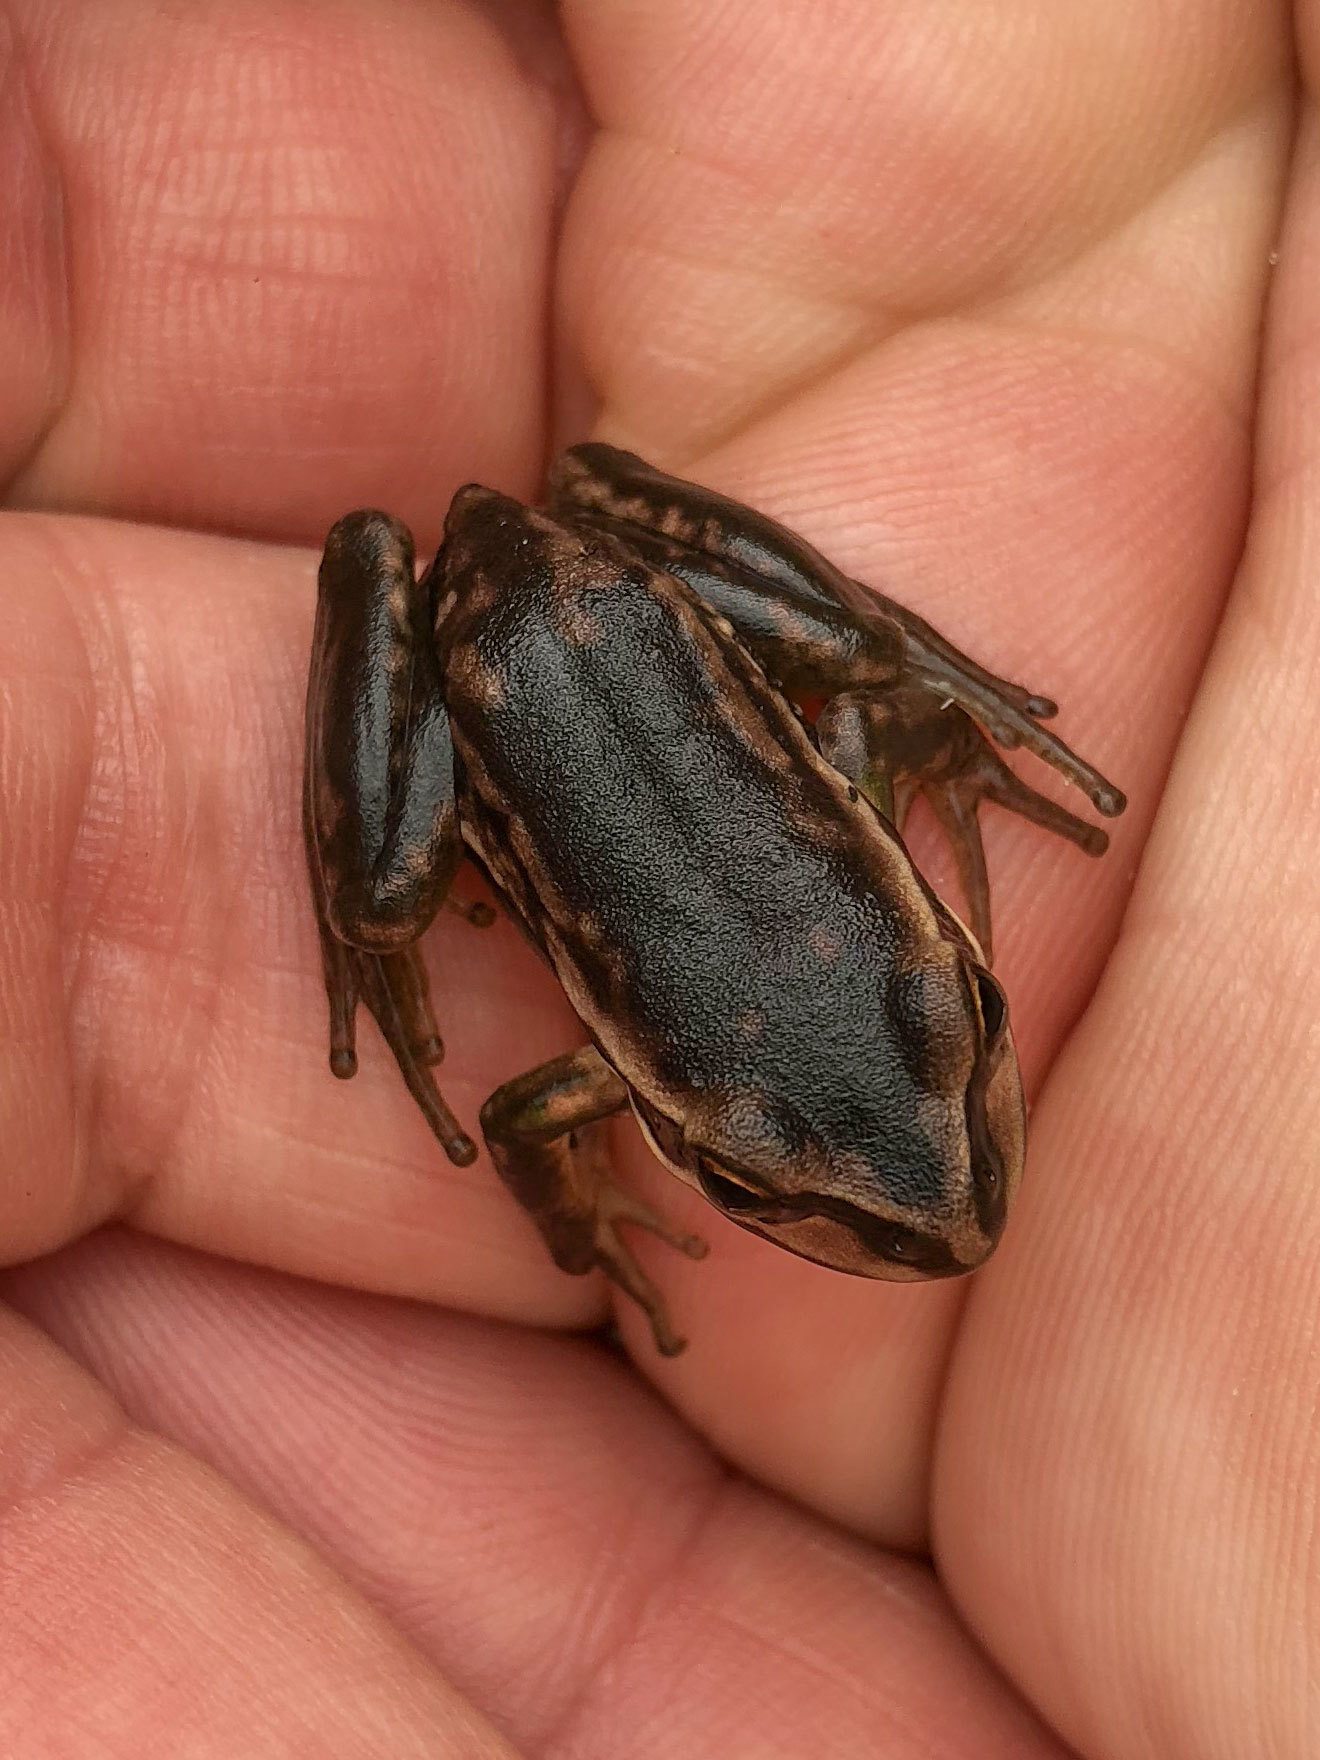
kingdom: Animalia
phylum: Chordata
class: Amphibia
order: Anura
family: Pelodryadidae
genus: Ranoidea
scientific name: Ranoidea aurea
